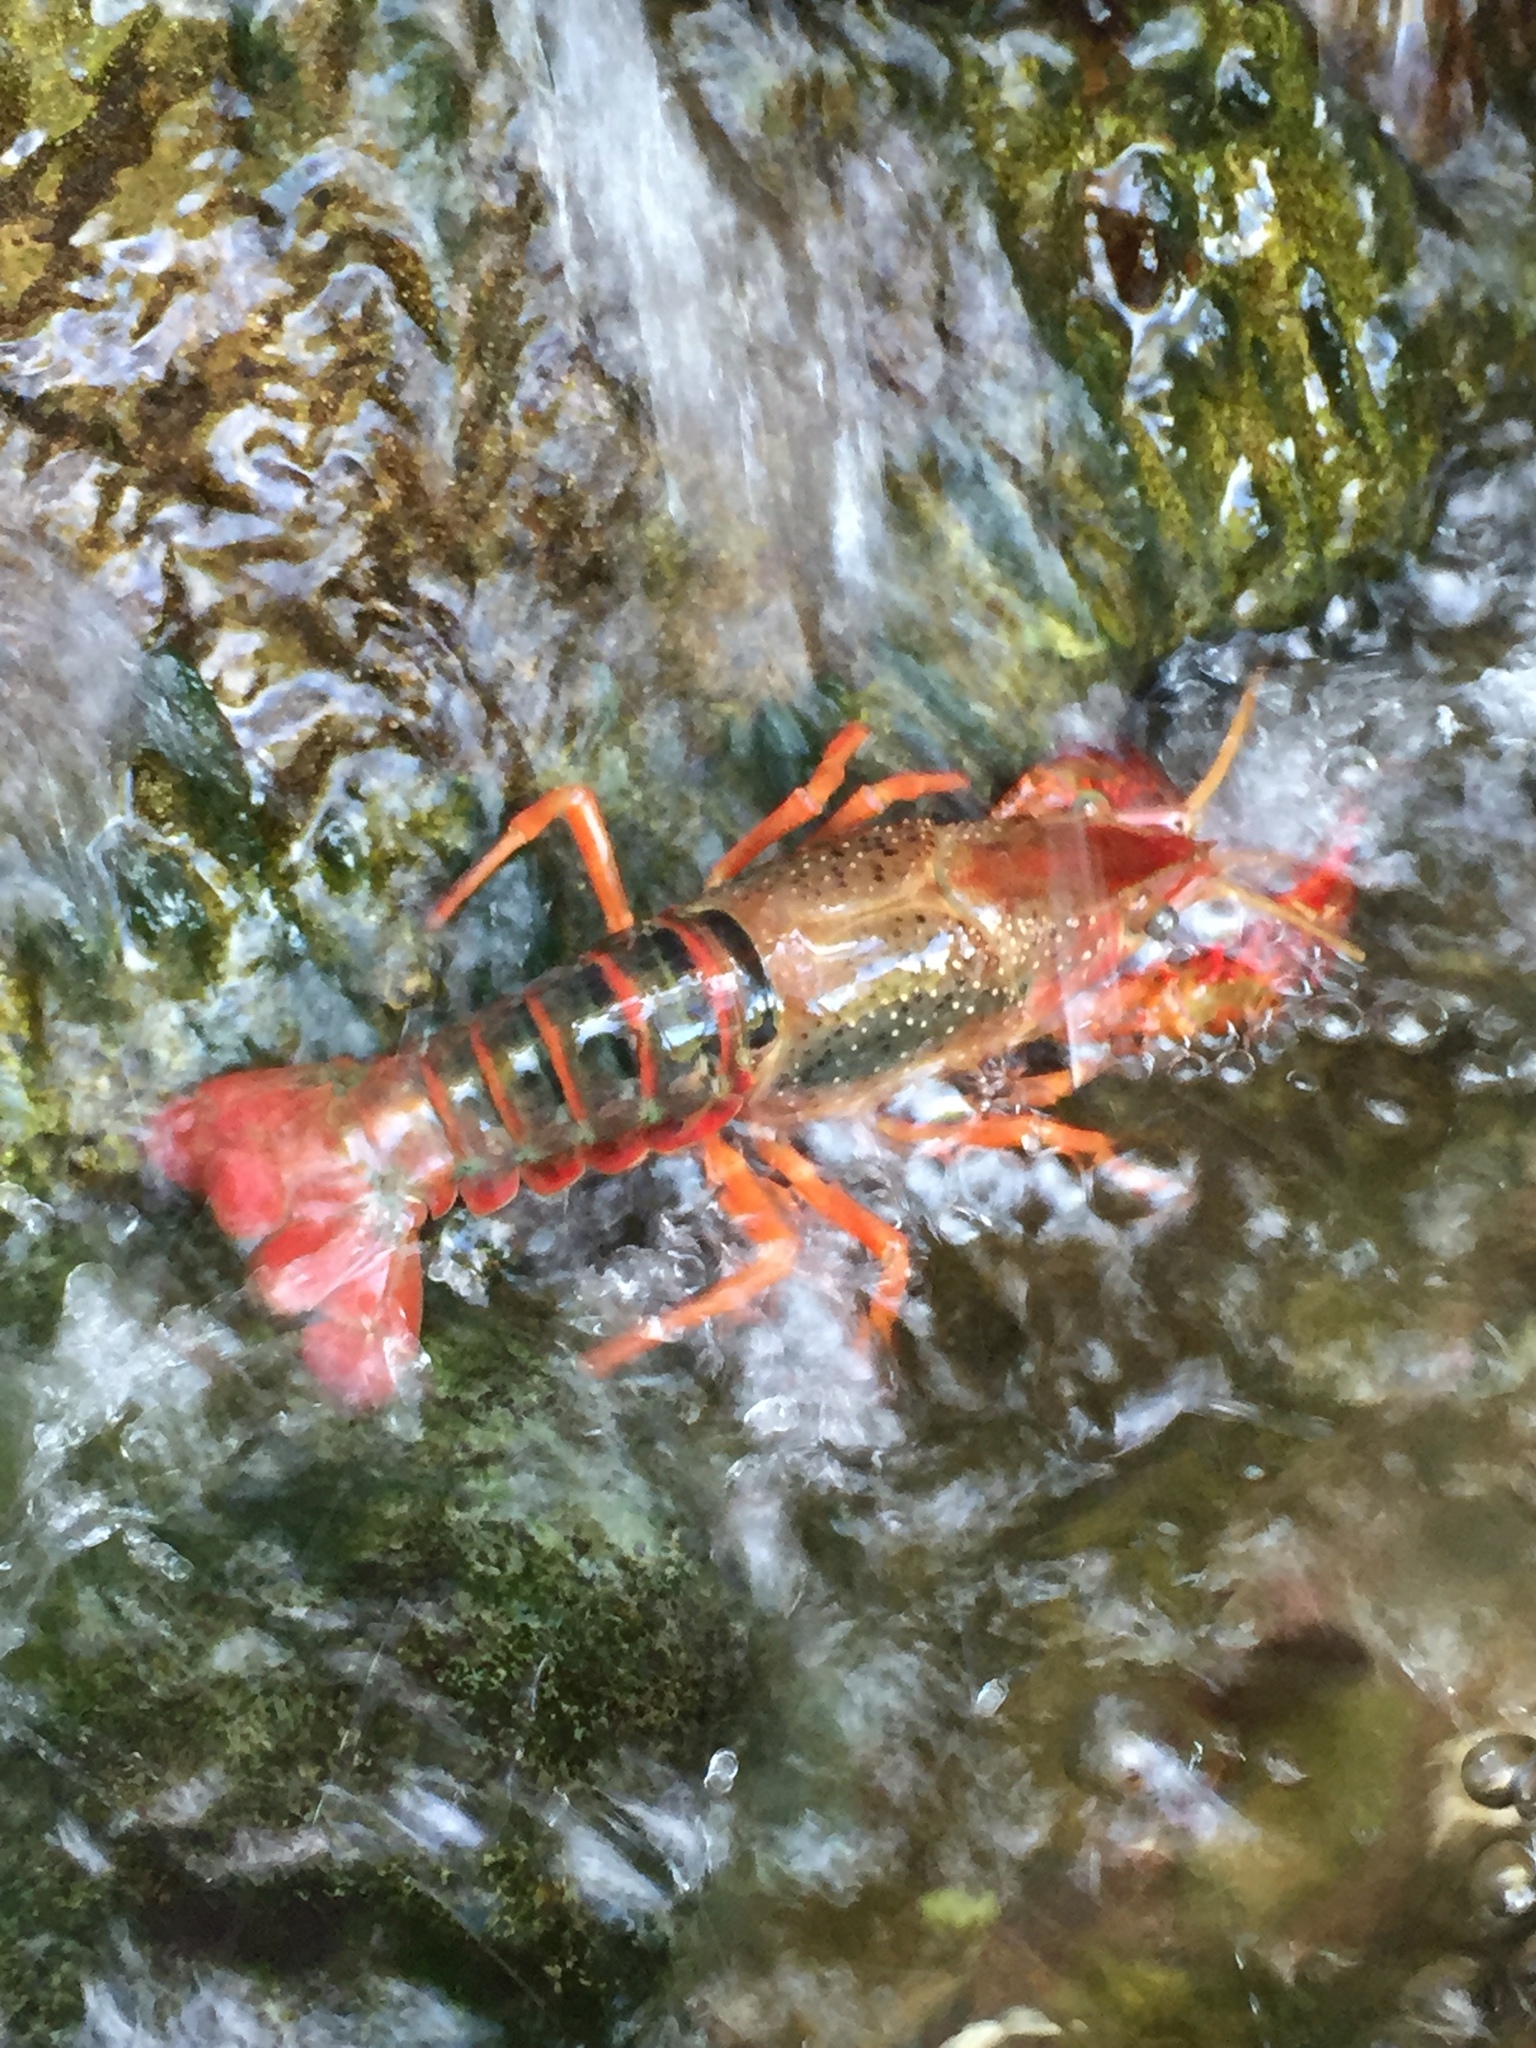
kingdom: Animalia
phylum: Arthropoda
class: Malacostraca
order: Decapoda
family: Cambaridae
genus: Procambarus
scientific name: Procambarus clarkii
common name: Red swamp crayfish
